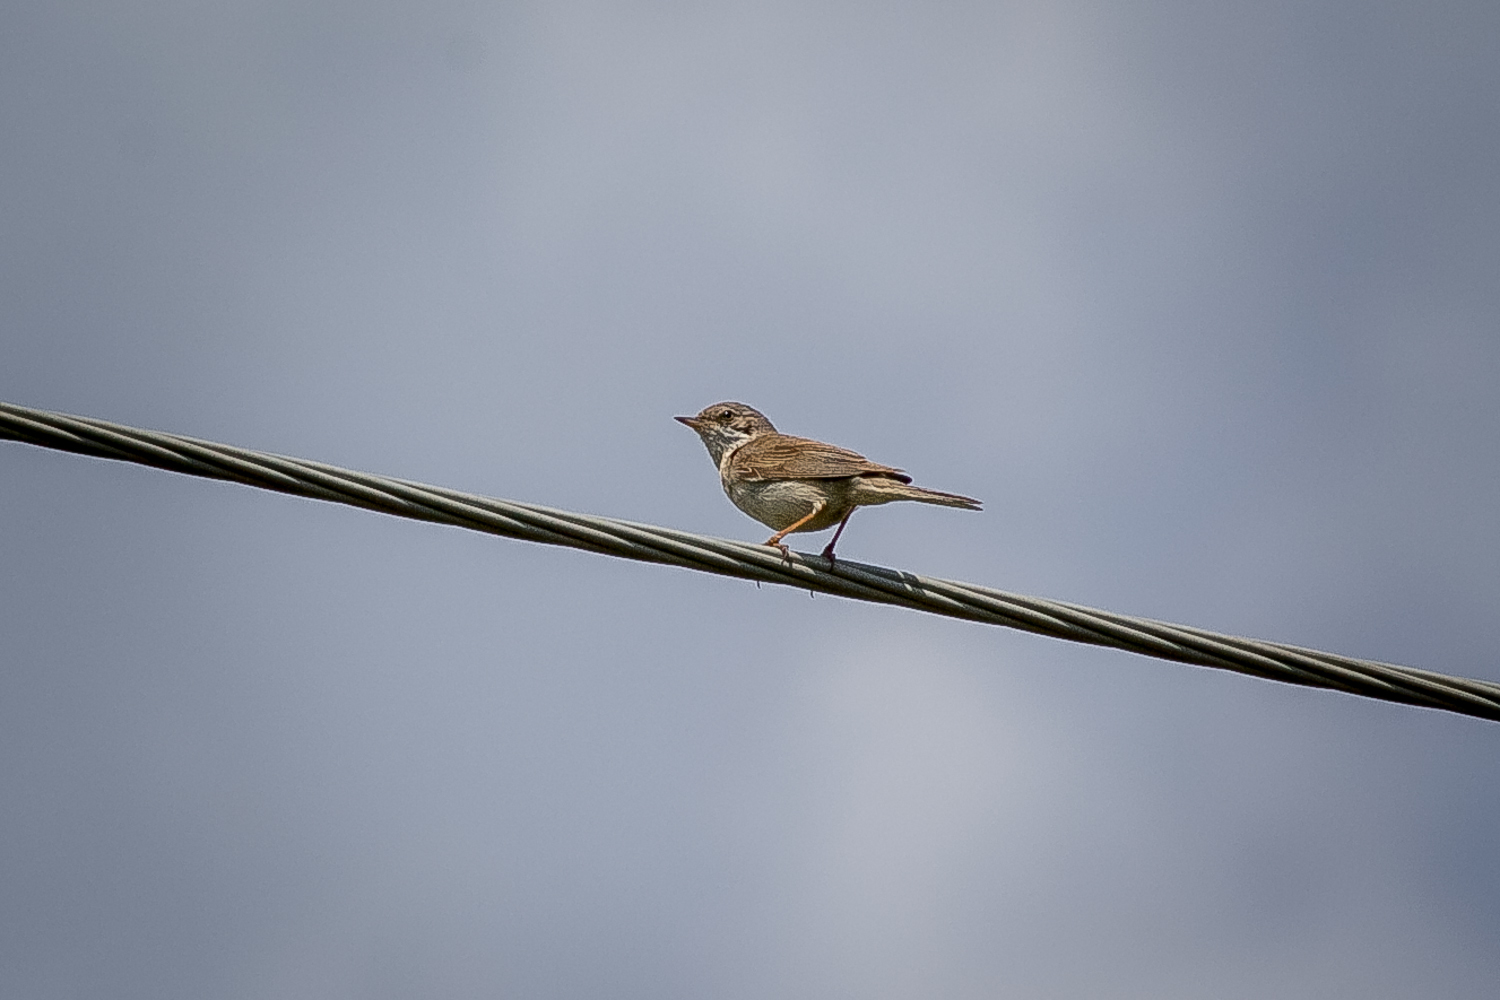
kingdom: Animalia
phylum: Chordata
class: Aves
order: Passeriformes
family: Sylviidae
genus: Sylvia
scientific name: Sylvia communis
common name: Common whitethroat
